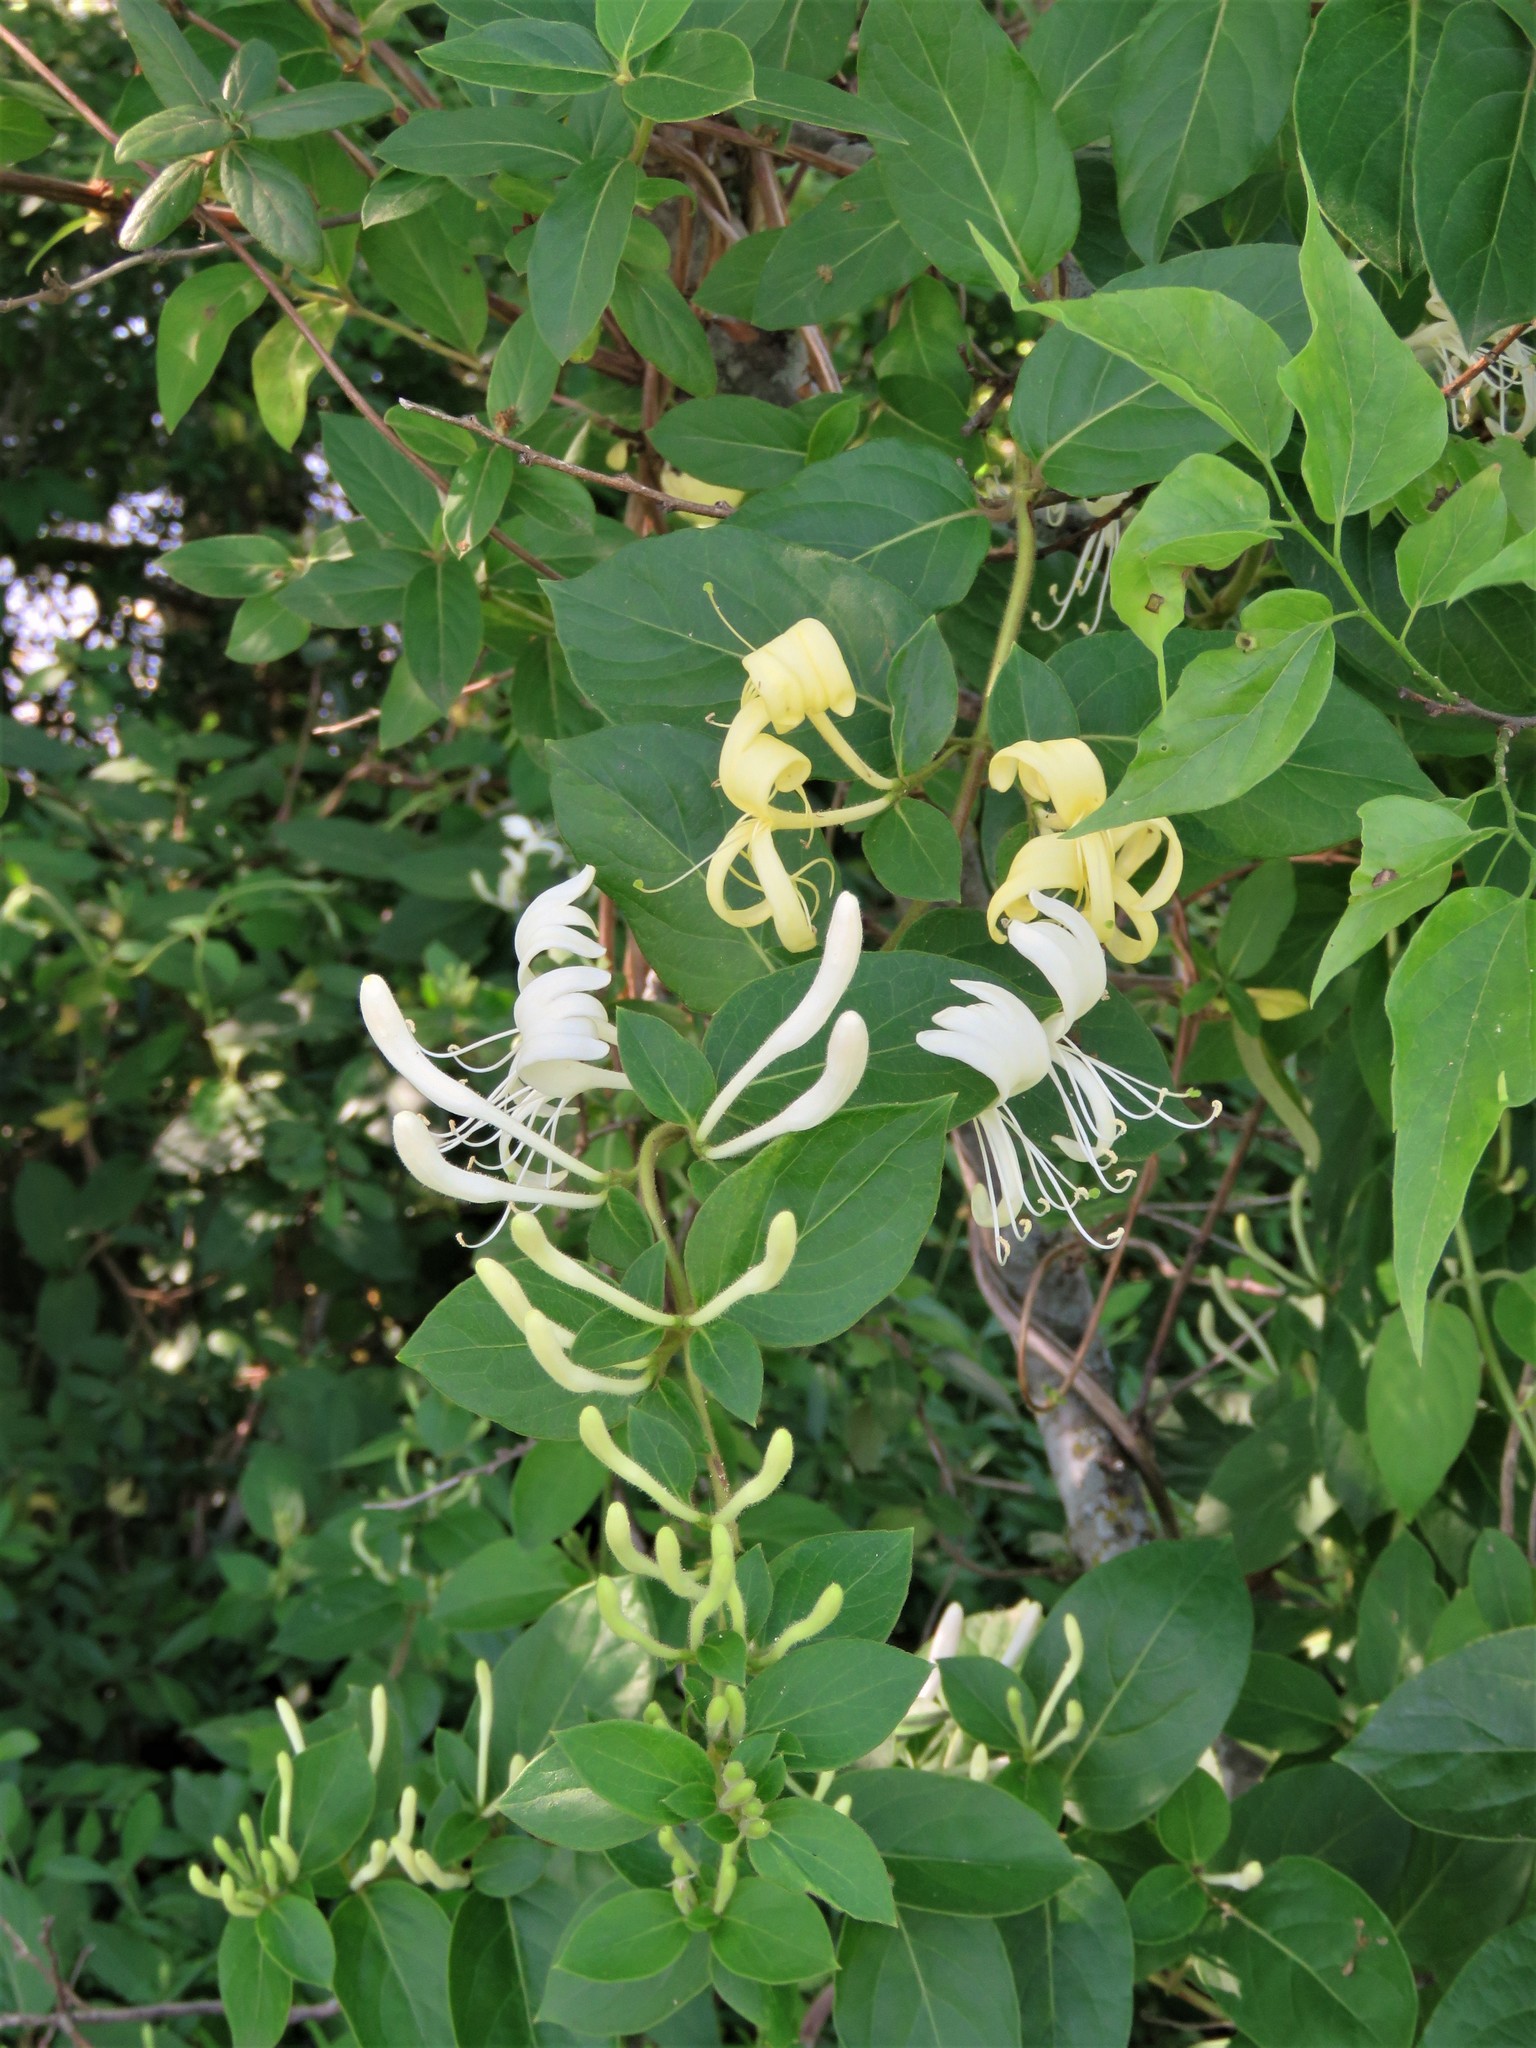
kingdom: Plantae
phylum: Tracheophyta
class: Magnoliopsida
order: Dipsacales
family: Caprifoliaceae
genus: Lonicera
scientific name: Lonicera japonica
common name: Japanese honeysuckle
